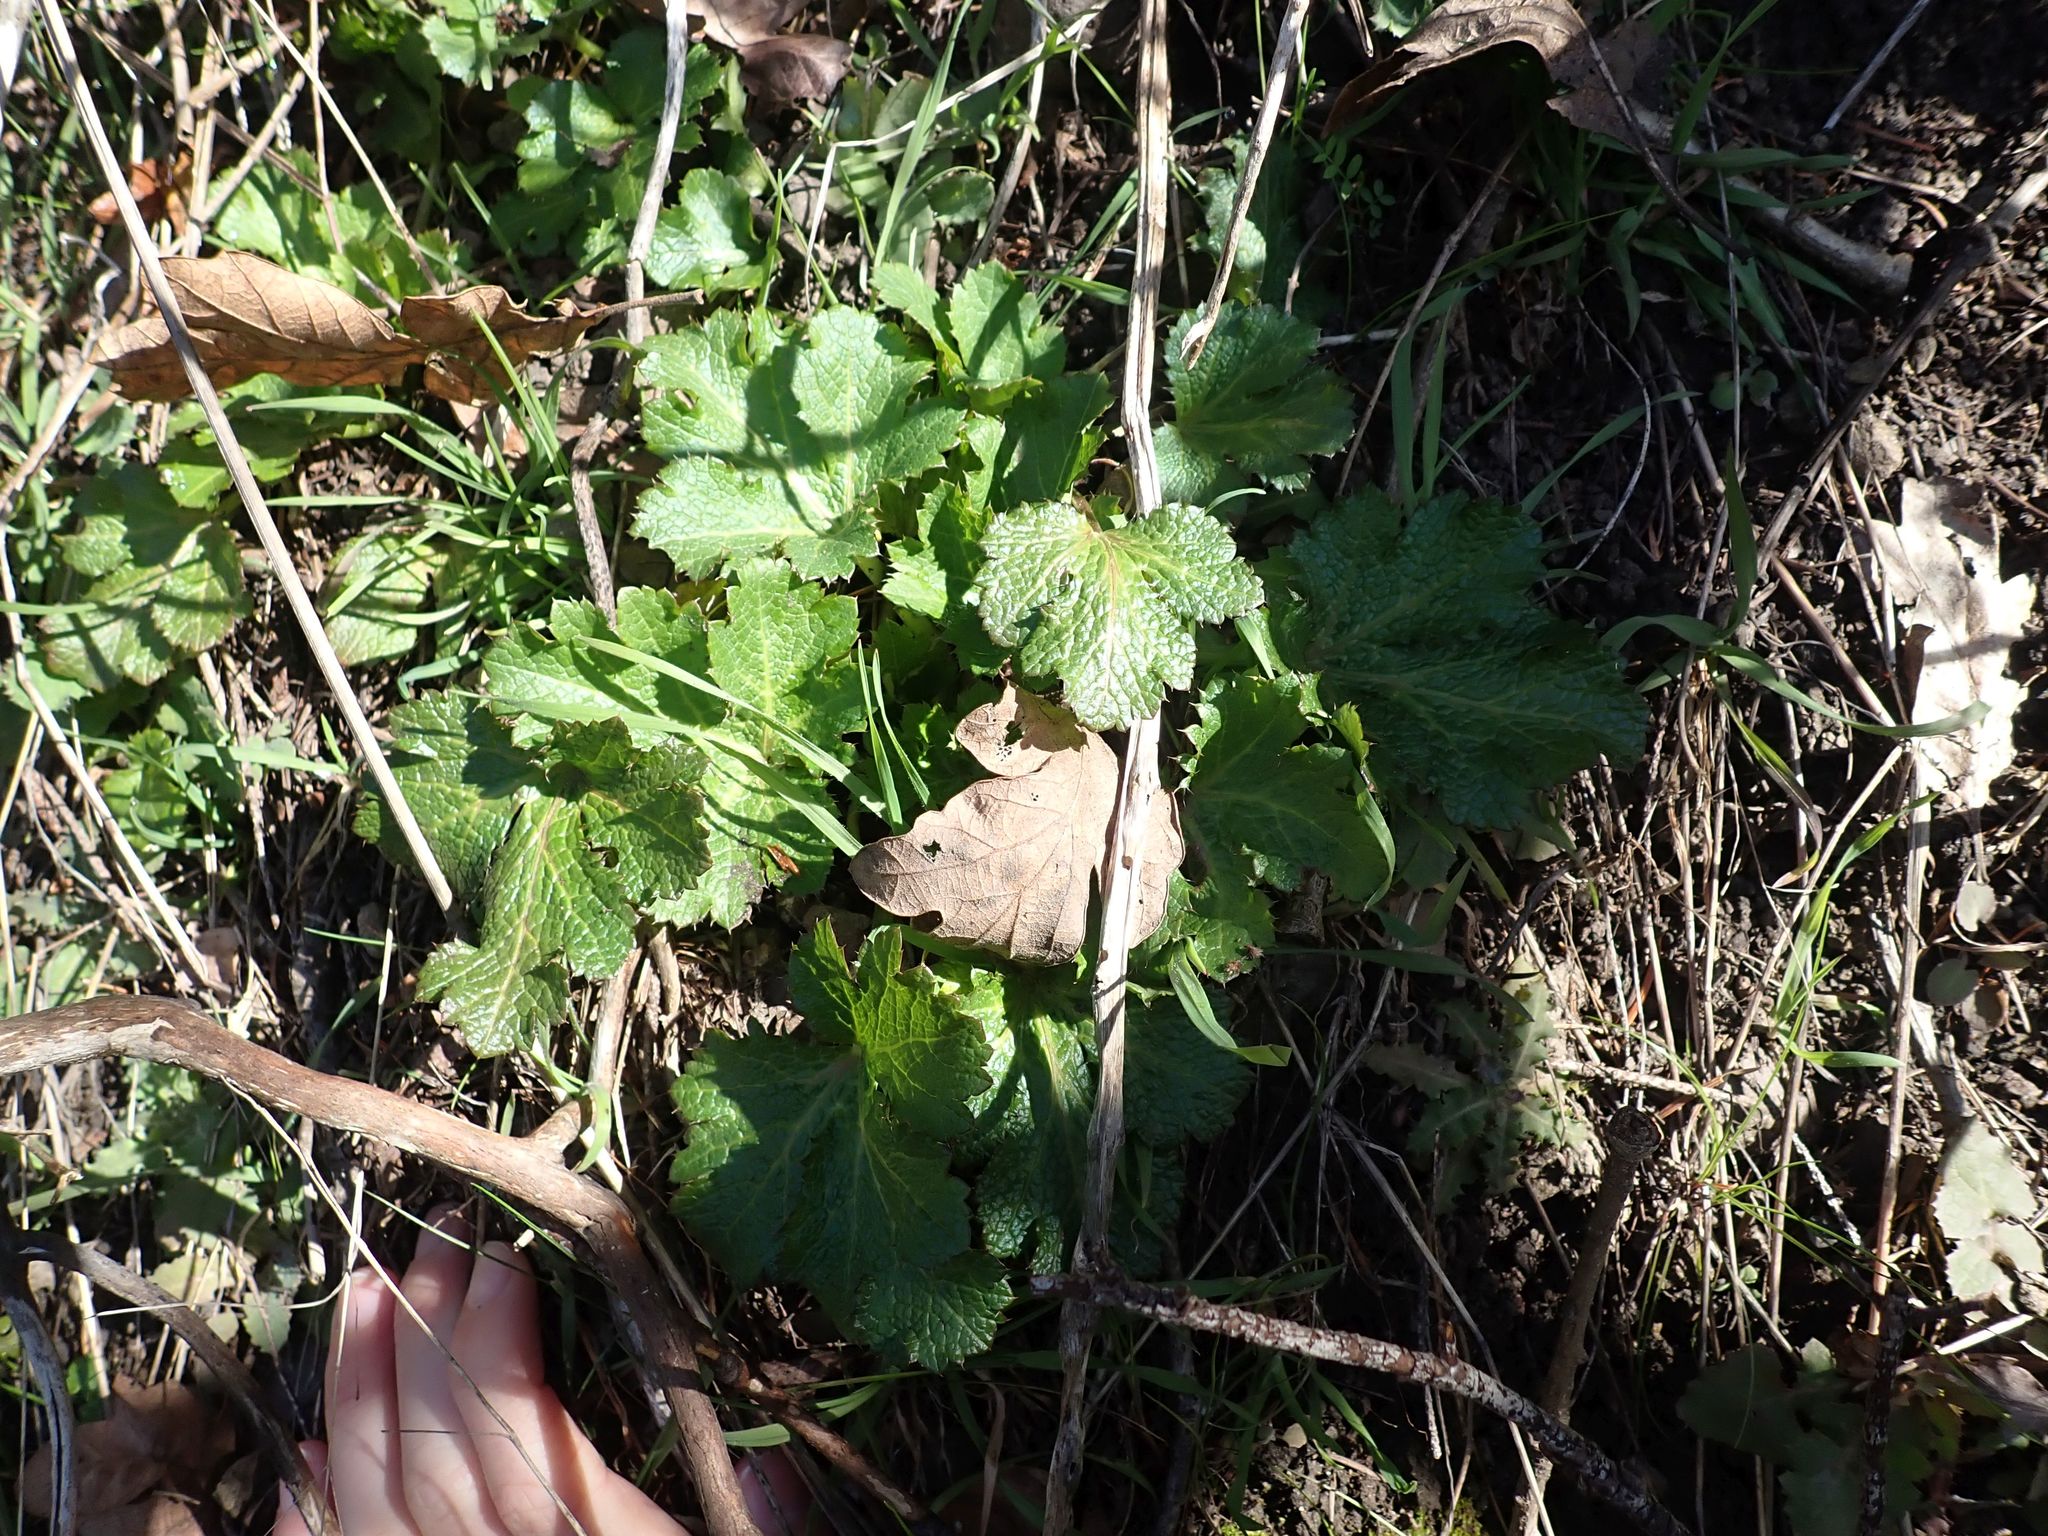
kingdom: Plantae
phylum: Tracheophyta
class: Magnoliopsida
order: Apiales
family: Apiaceae
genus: Sanicula
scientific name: Sanicula crassicaulis
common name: Western snakeroot
